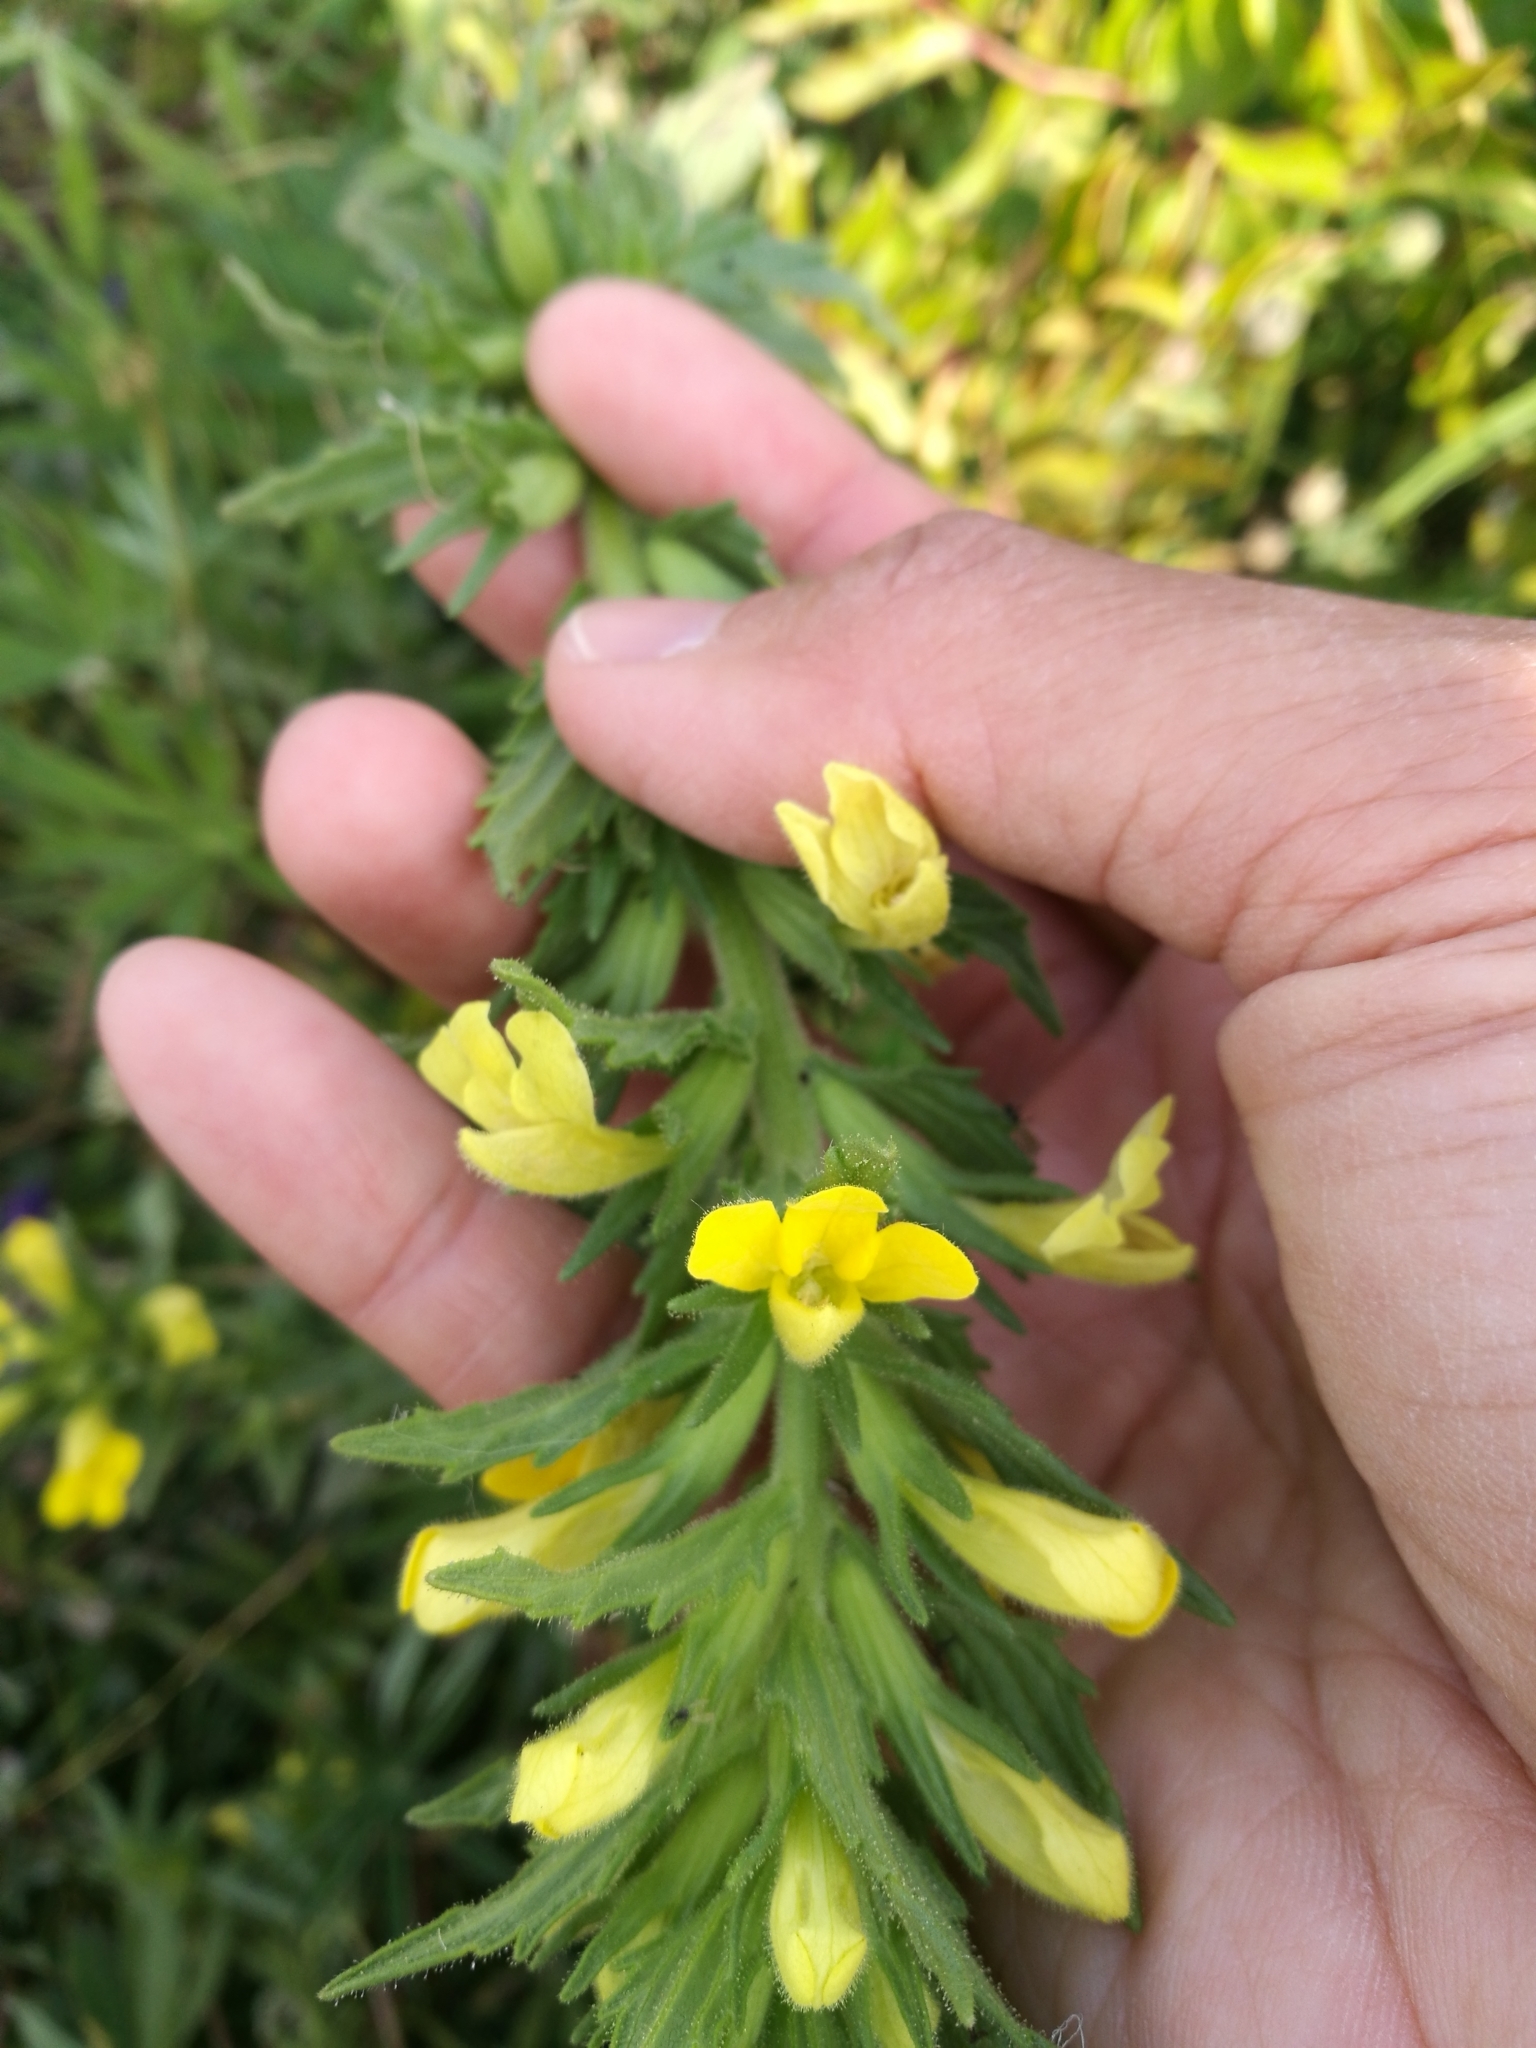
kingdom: Plantae
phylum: Tracheophyta
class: Magnoliopsida
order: Lamiales
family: Orobanchaceae
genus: Bellardia
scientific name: Bellardia viscosa
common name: Sticky parentucellia
